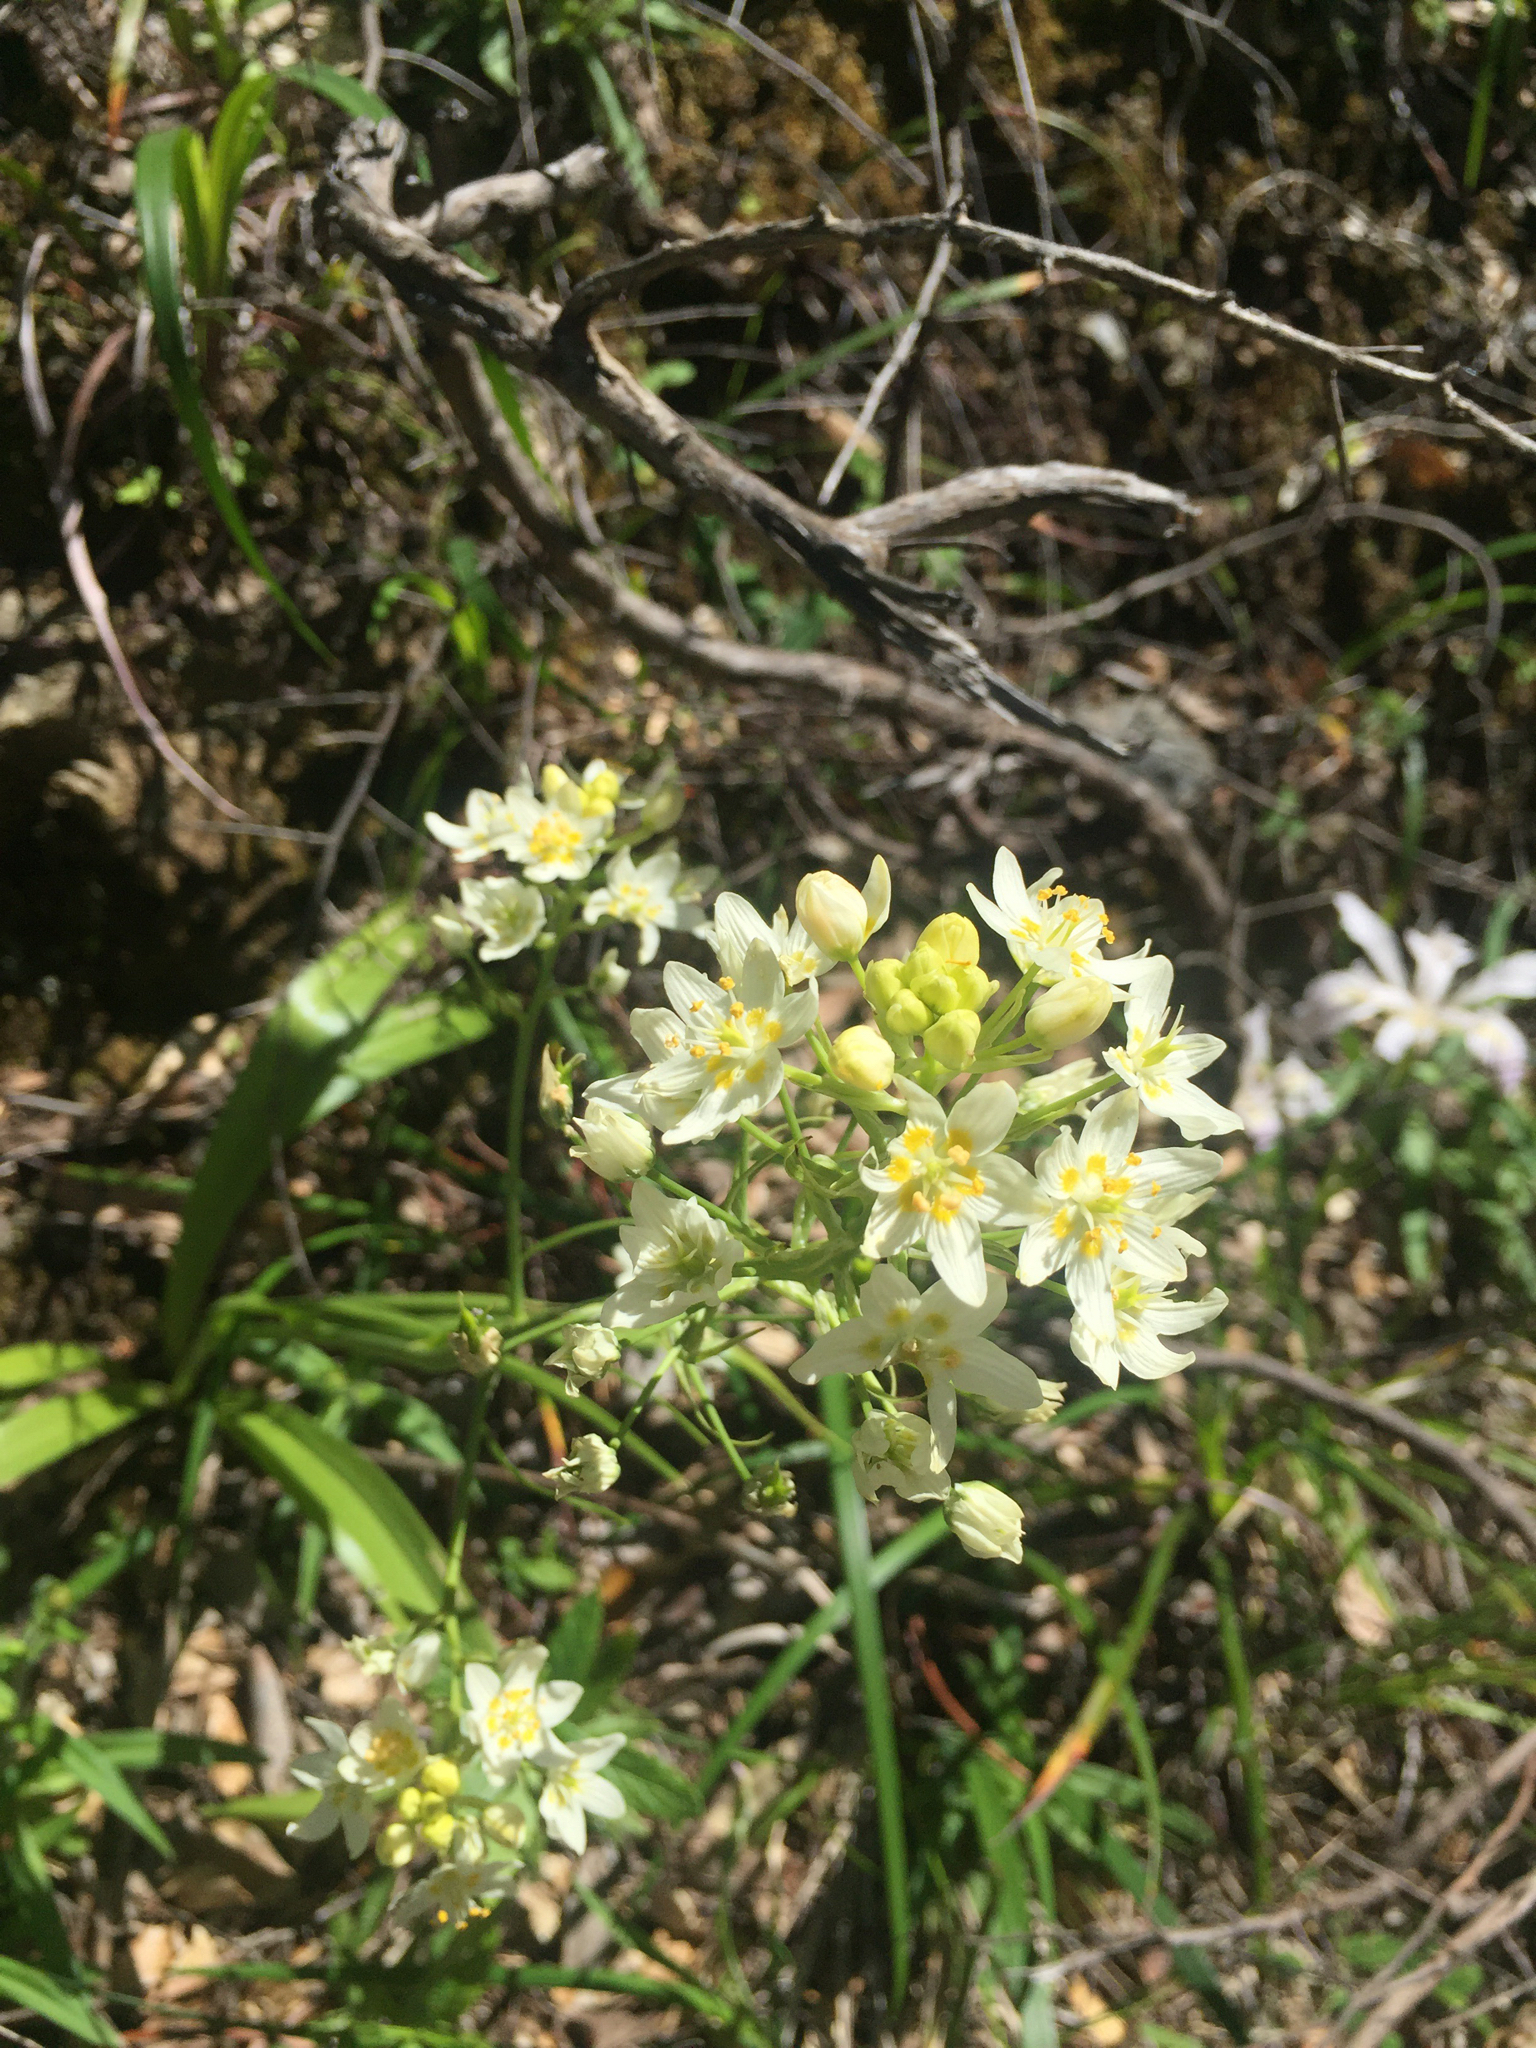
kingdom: Plantae
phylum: Tracheophyta
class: Liliopsida
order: Liliales
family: Melanthiaceae
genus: Toxicoscordion
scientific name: Toxicoscordion fremontii
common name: Fremont's death camas
